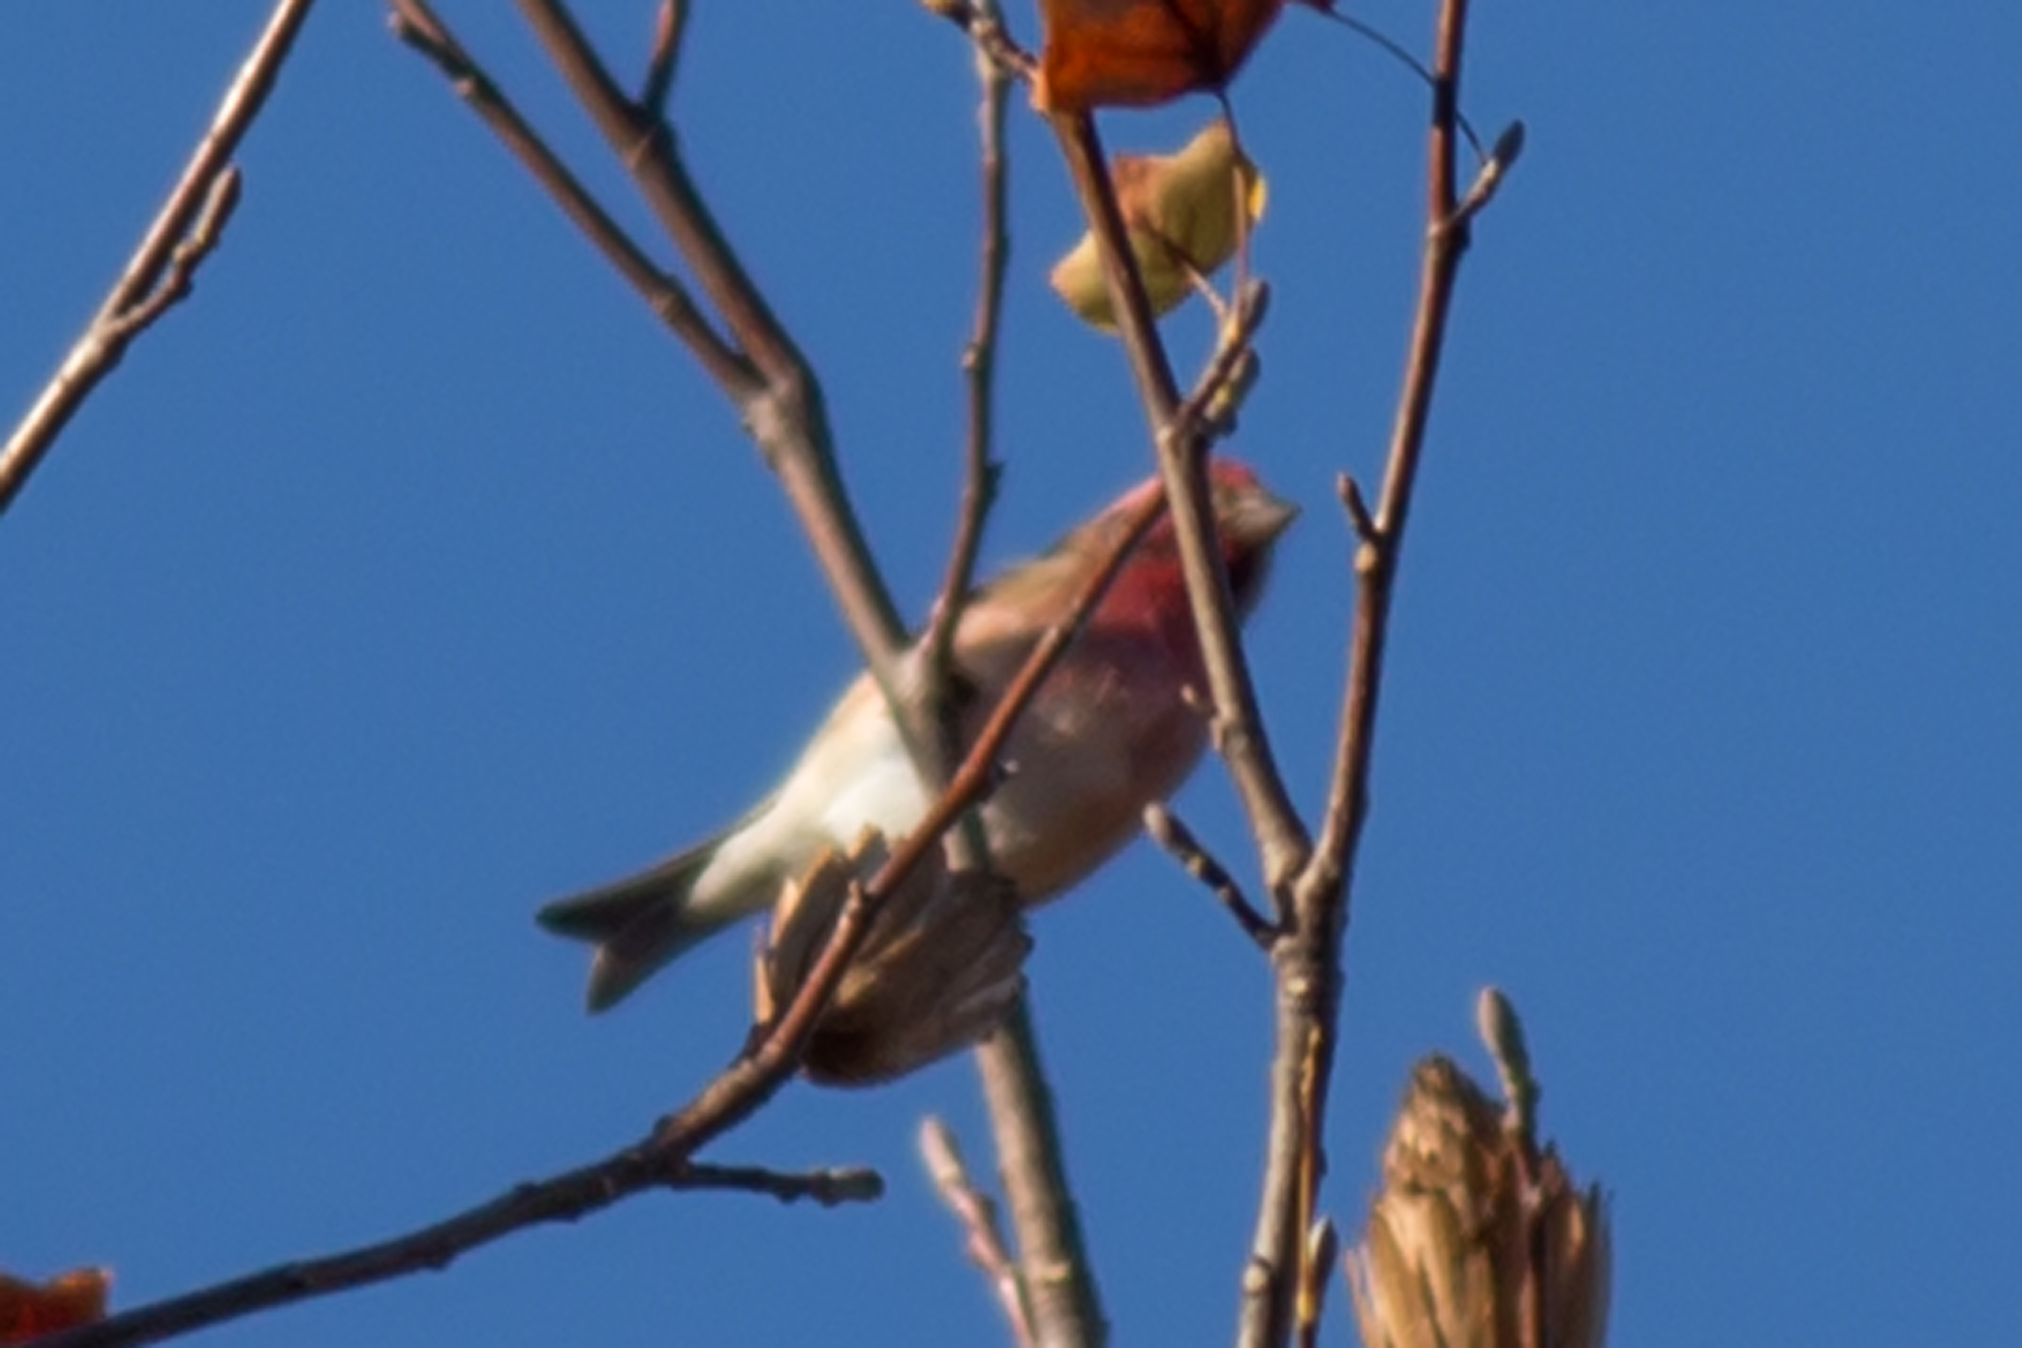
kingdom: Animalia
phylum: Chordata
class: Aves
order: Passeriformes
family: Fringillidae
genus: Haemorhous
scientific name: Haemorhous purpureus
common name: Purple finch
